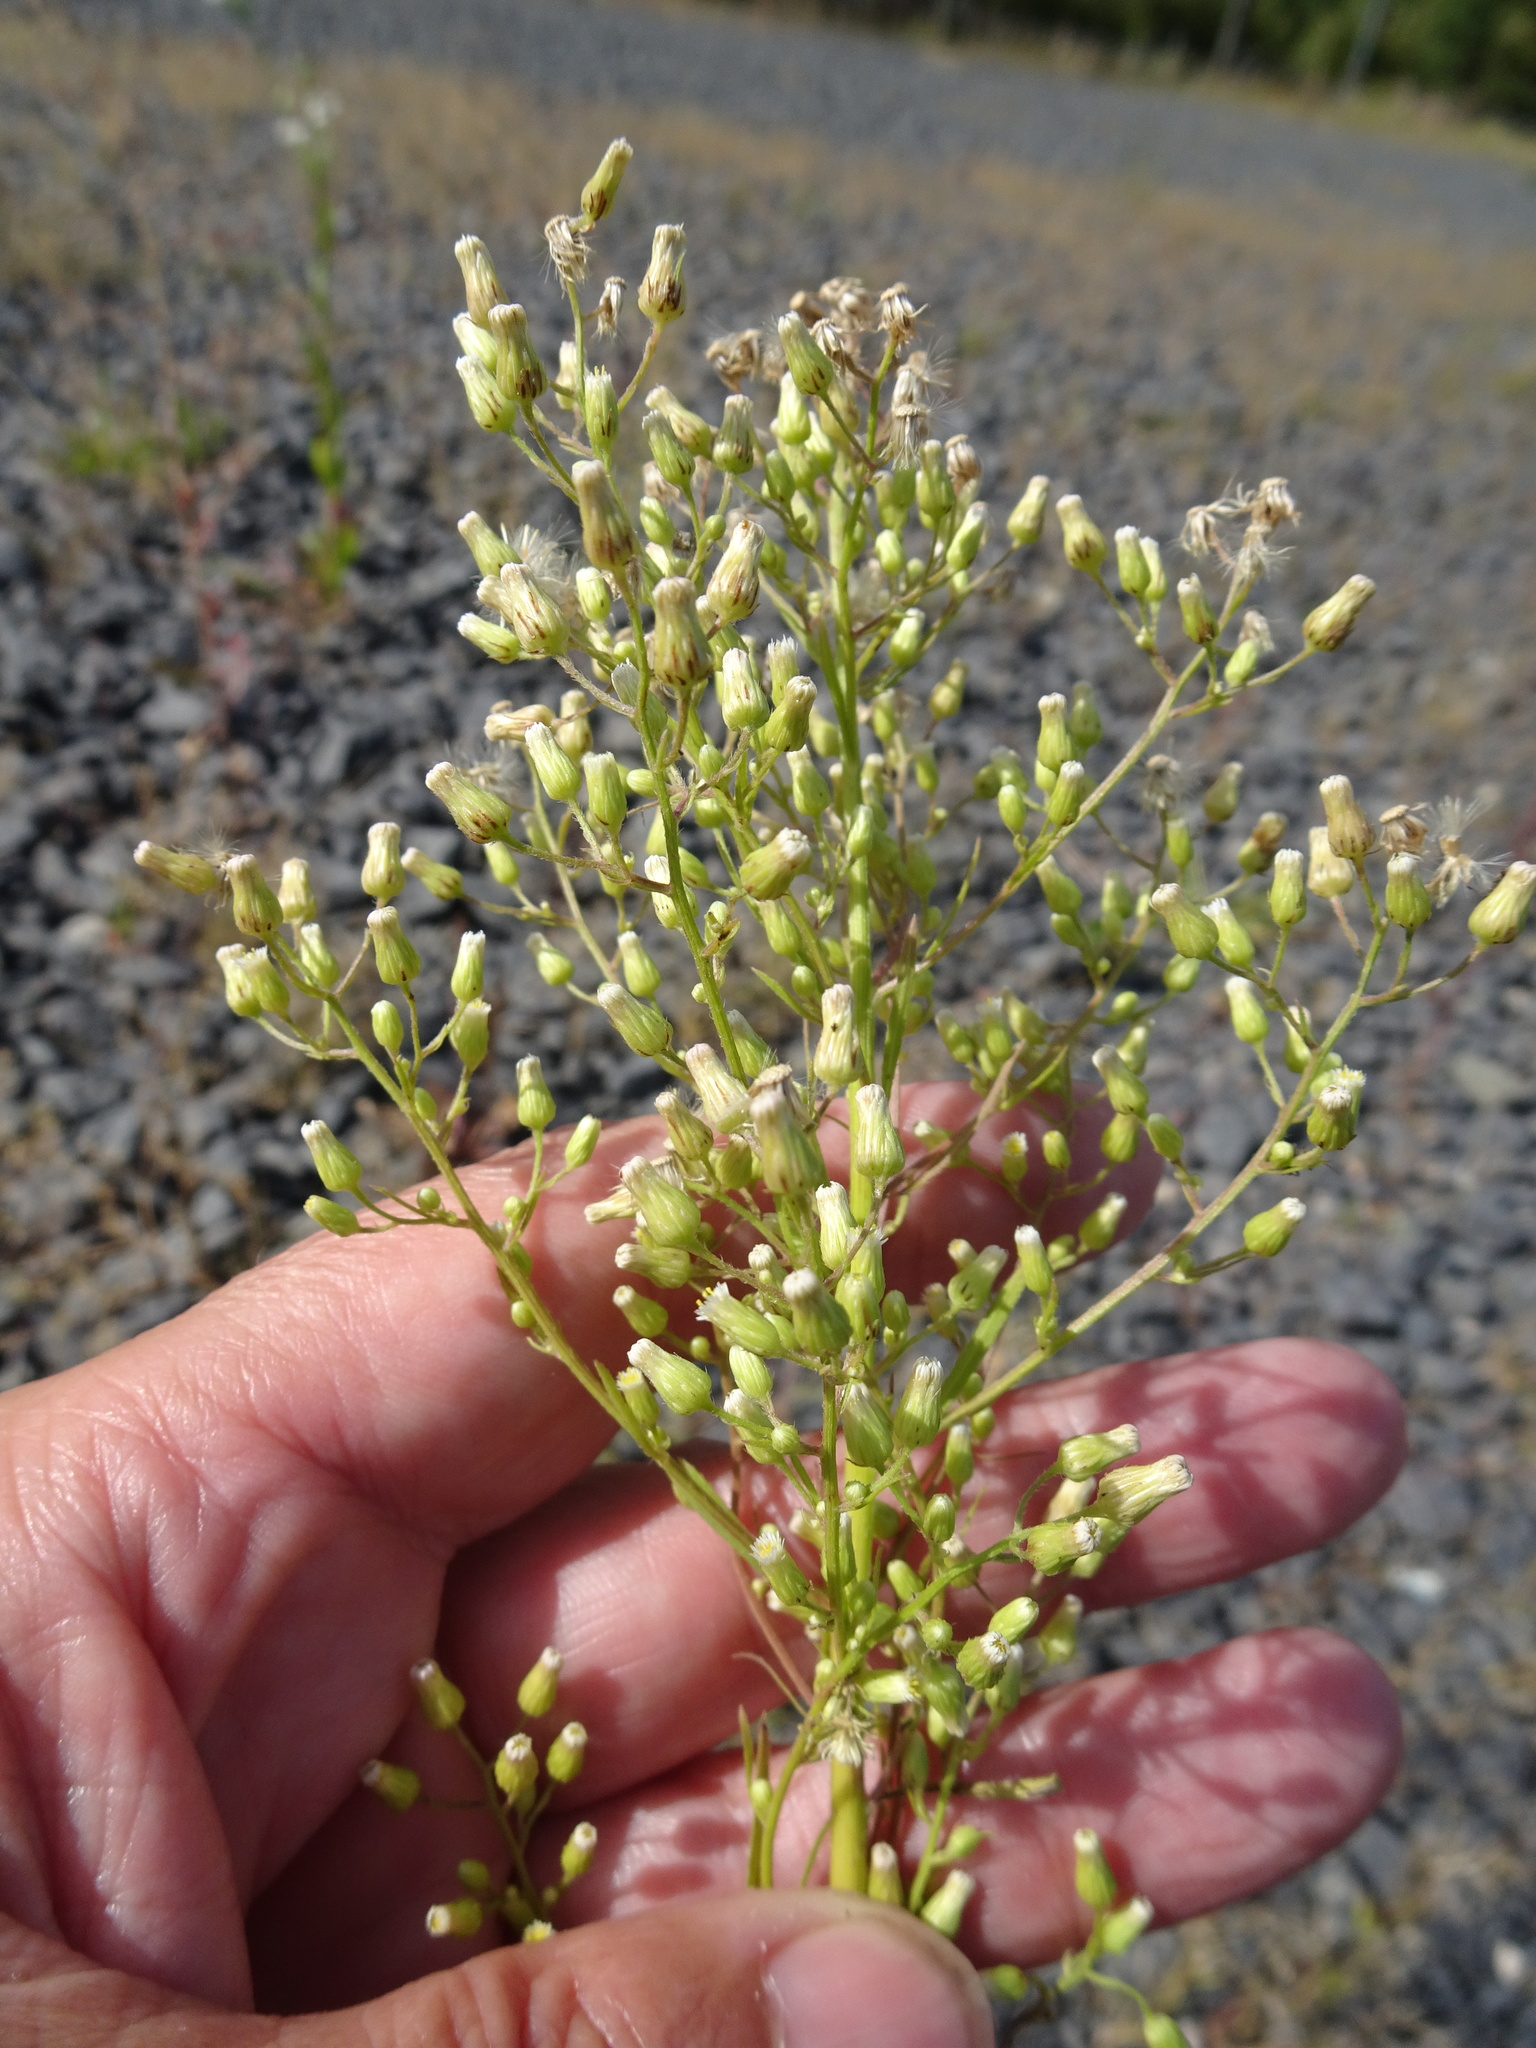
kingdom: Plantae
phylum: Tracheophyta
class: Magnoliopsida
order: Asterales
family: Asteraceae
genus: Erigeron
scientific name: Erigeron canadensis
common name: Canadian fleabane
